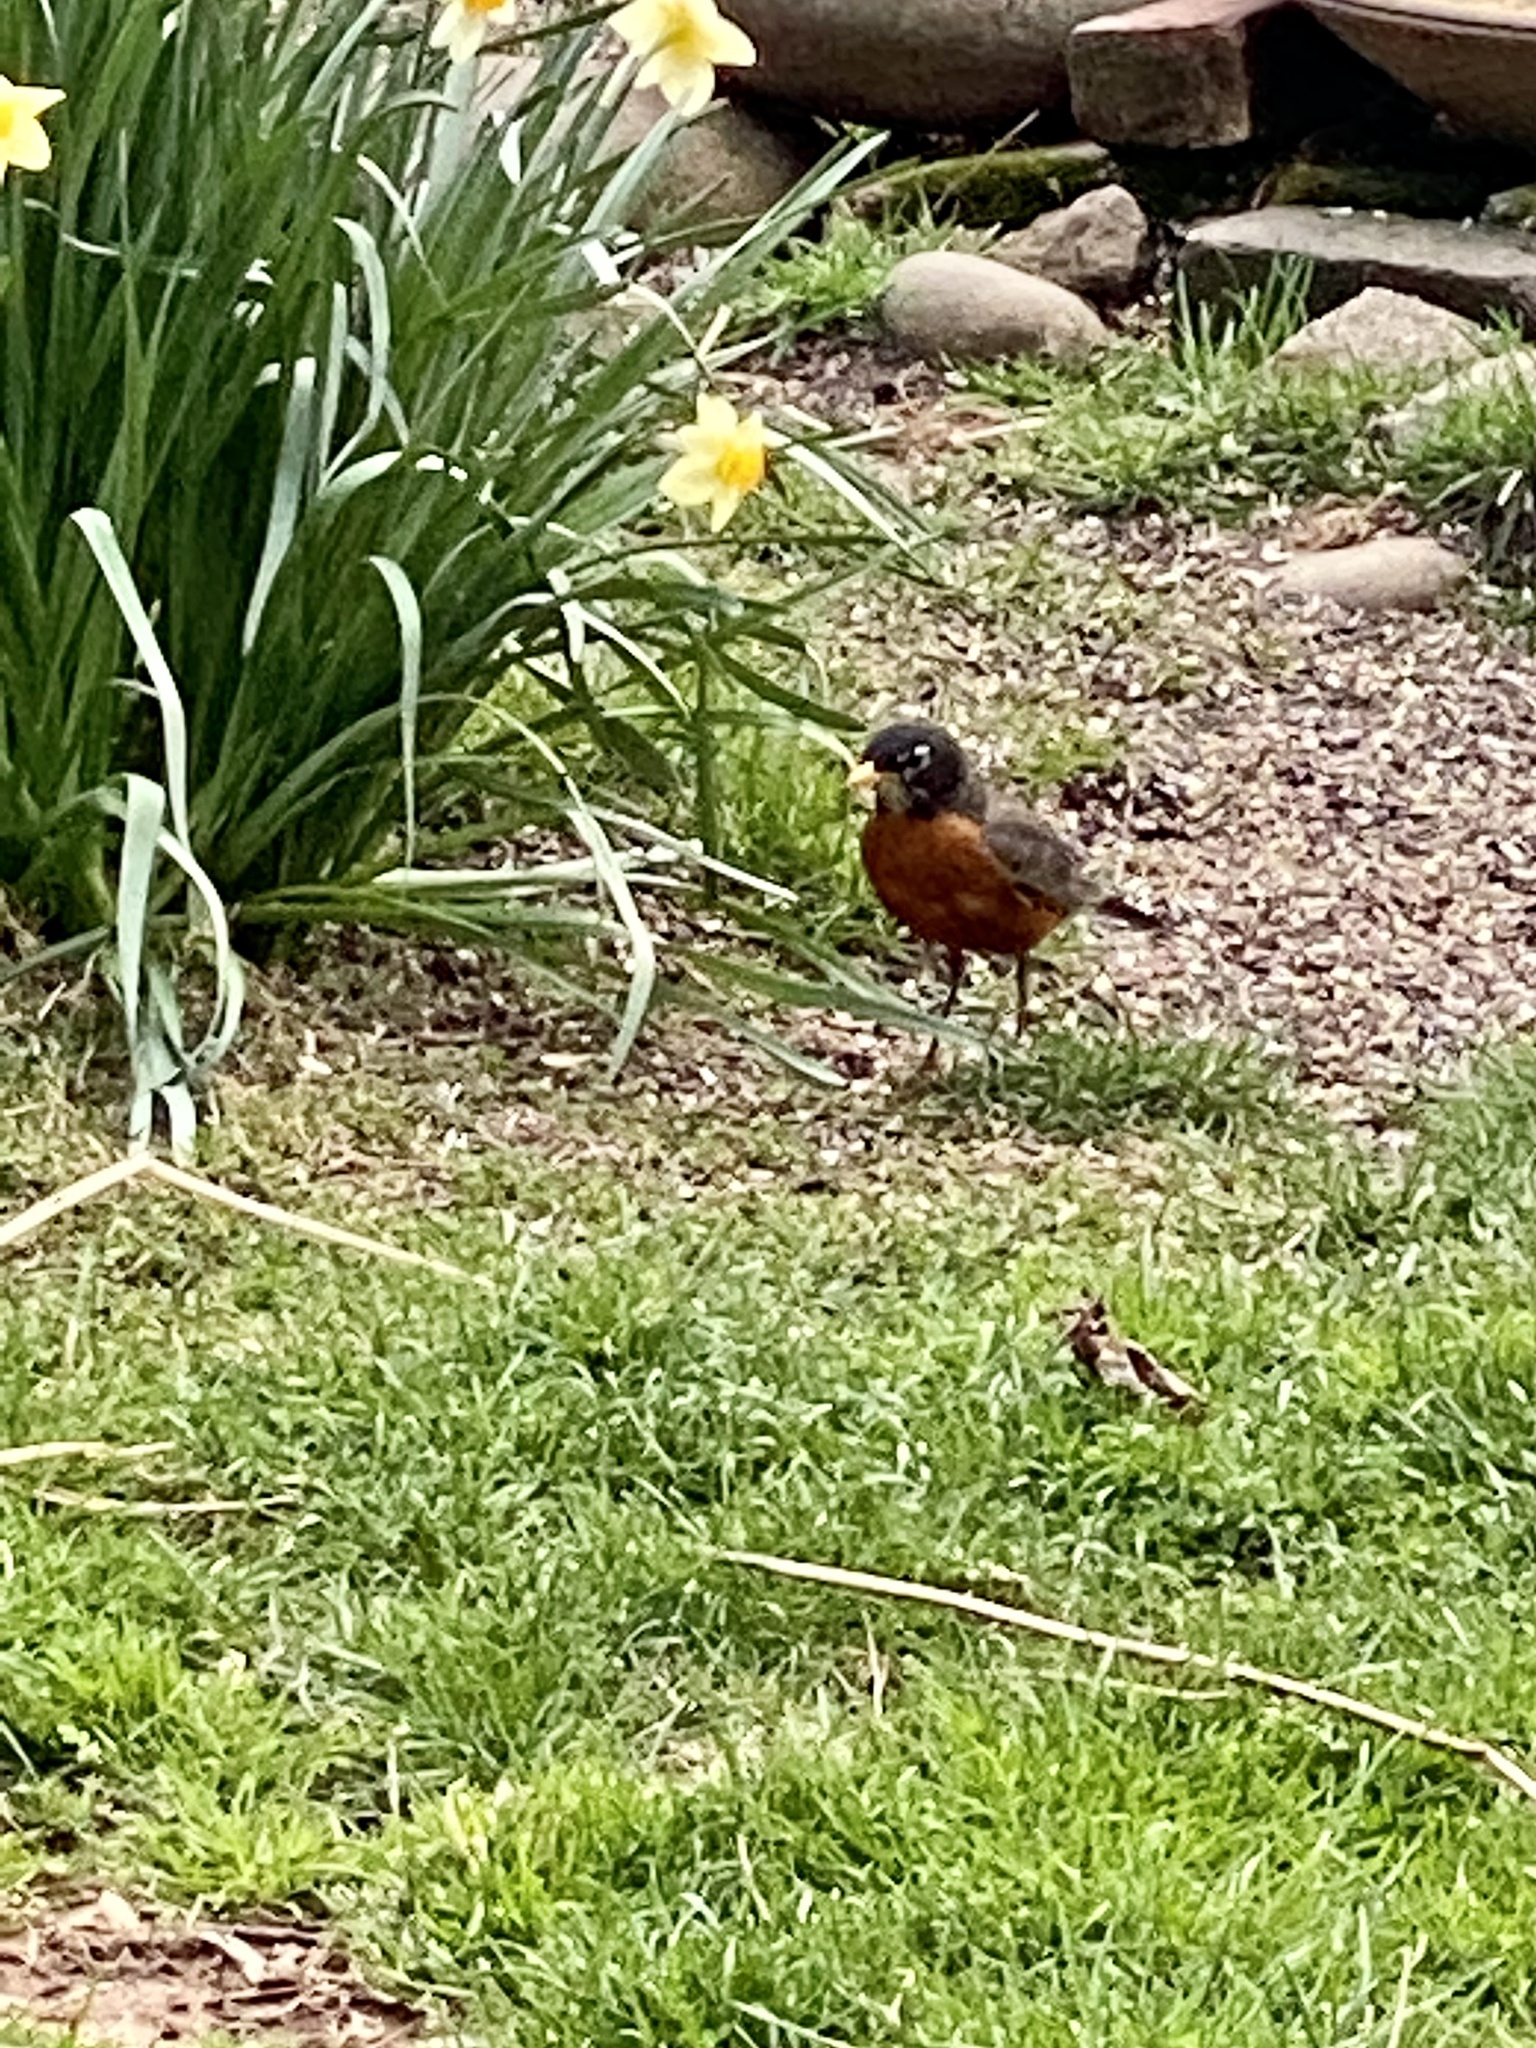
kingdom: Animalia
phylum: Chordata
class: Aves
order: Passeriformes
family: Turdidae
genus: Turdus
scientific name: Turdus migratorius
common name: American robin
